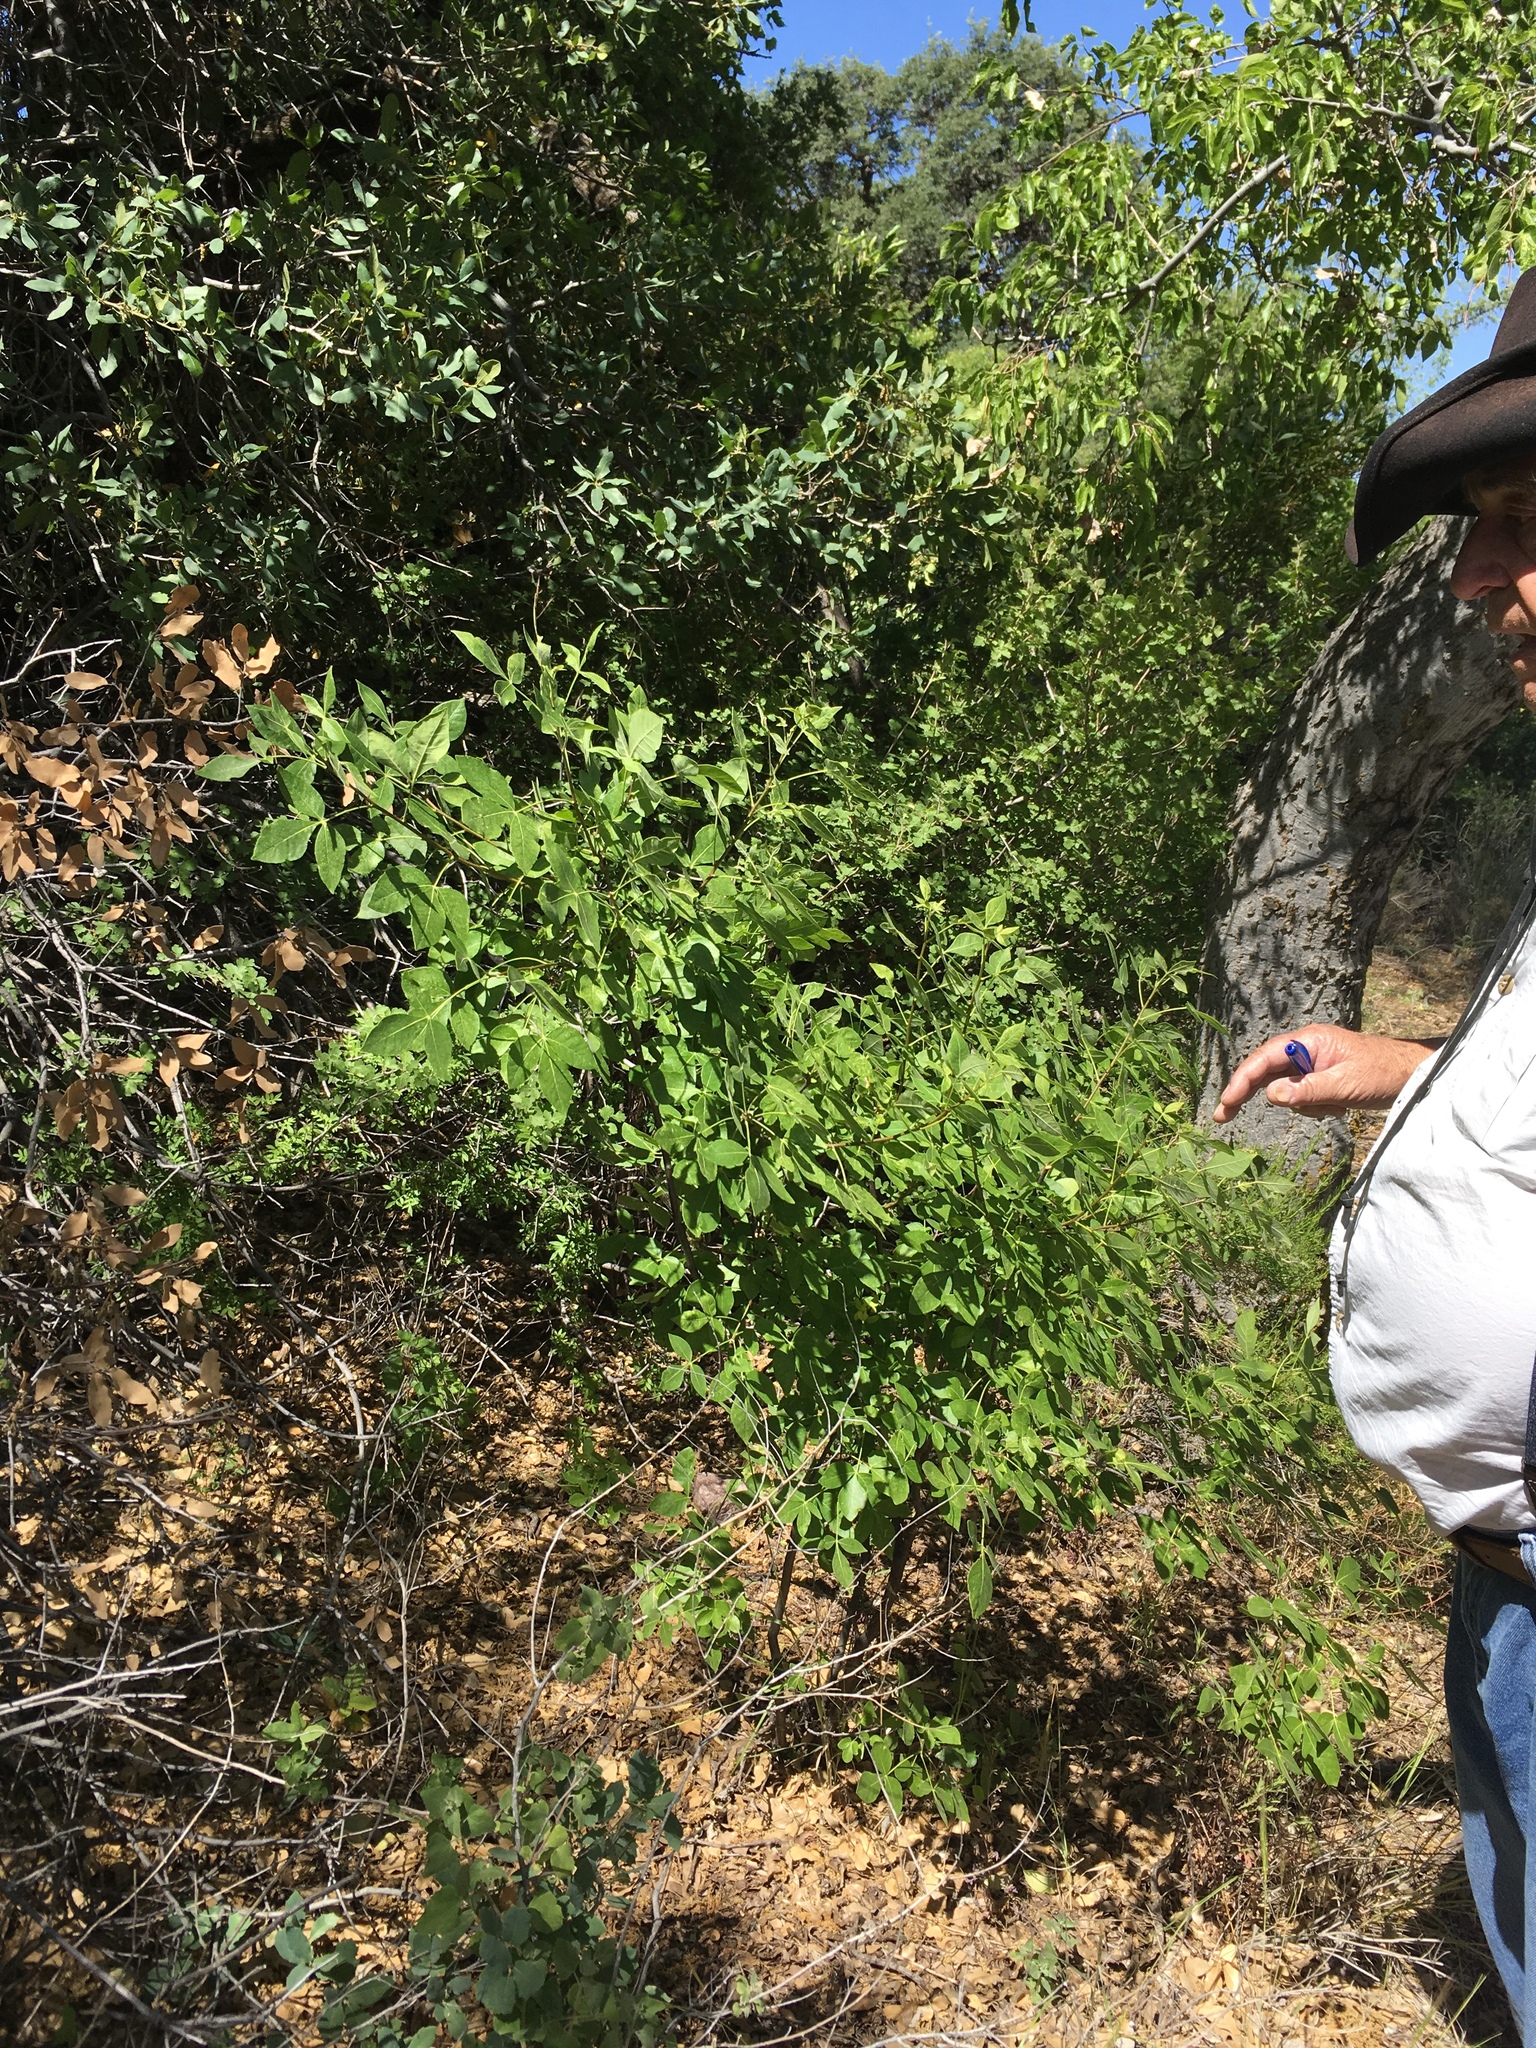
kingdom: Plantae
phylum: Tracheophyta
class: Magnoliopsida
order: Sapindales
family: Rutaceae
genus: Ptelea
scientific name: Ptelea trifoliata
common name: Common hop-tree
